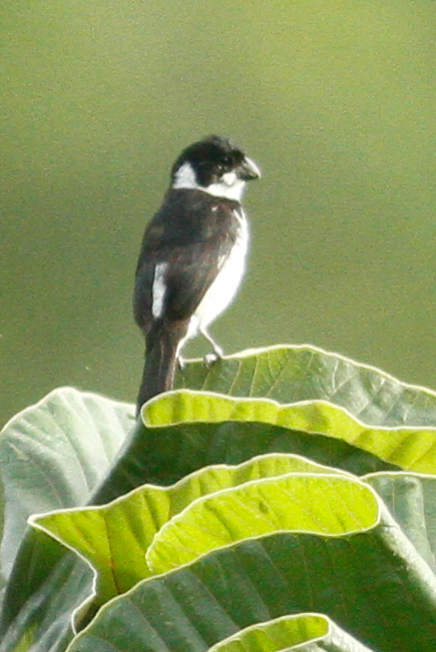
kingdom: Animalia
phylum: Chordata
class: Aves
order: Passeriformes
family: Thraupidae
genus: Sporophila
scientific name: Sporophila corvina
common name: Variable seedeater
